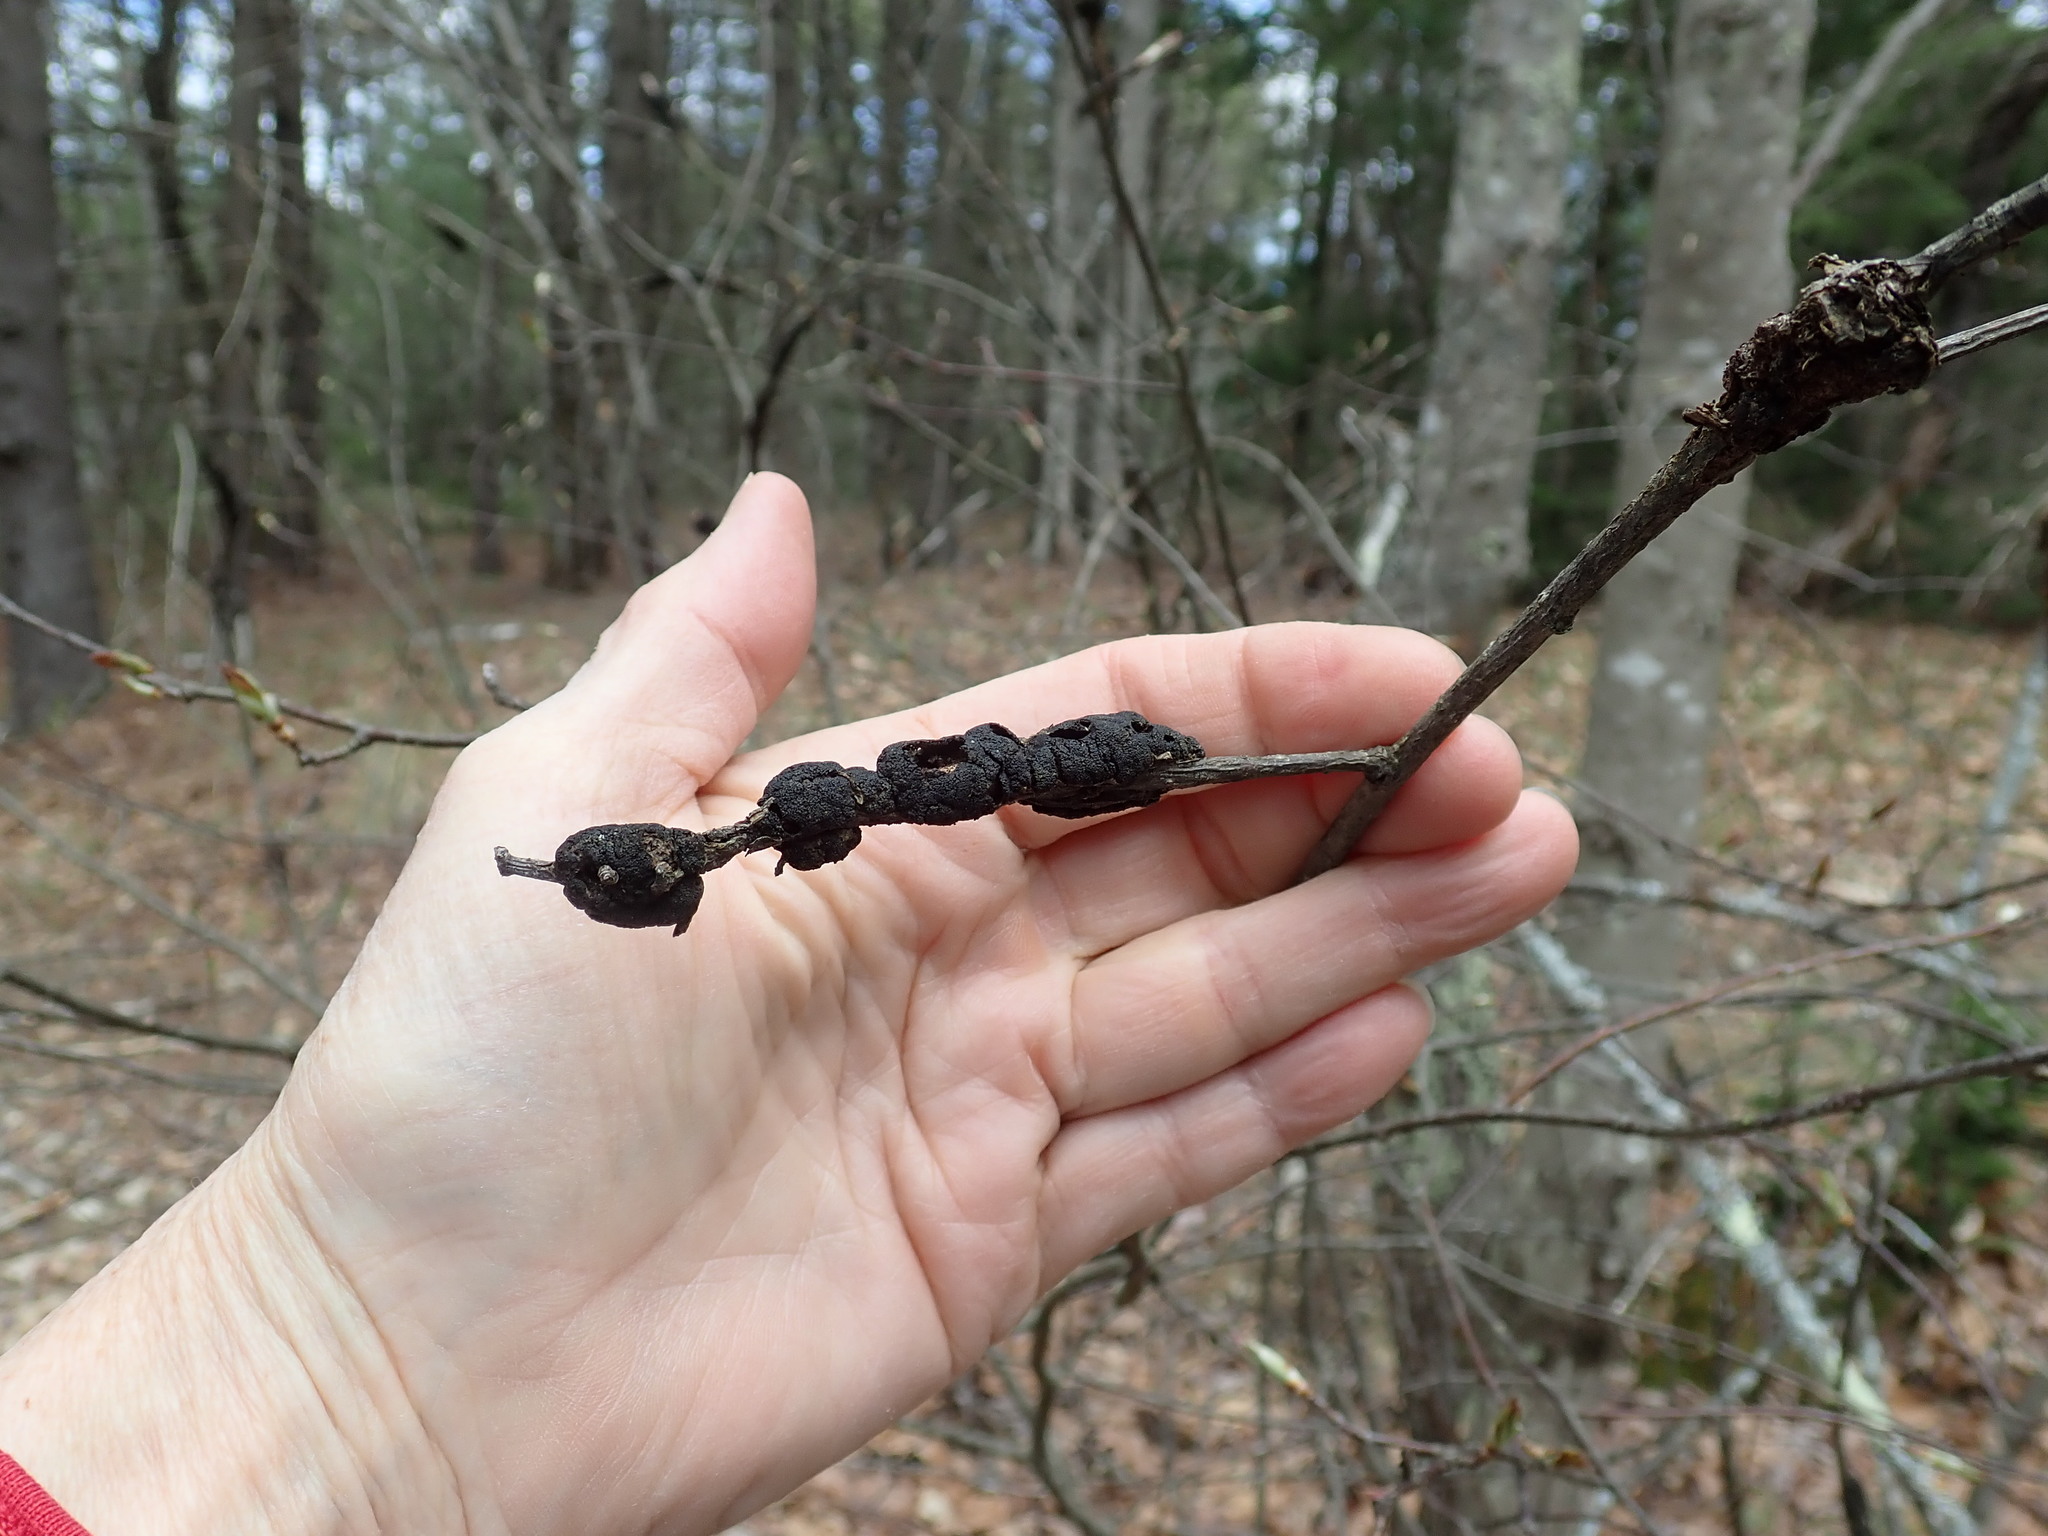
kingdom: Fungi
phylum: Ascomycota
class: Dothideomycetes
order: Venturiales
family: Venturiaceae
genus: Apiosporina
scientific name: Apiosporina morbosa
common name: Black knot
